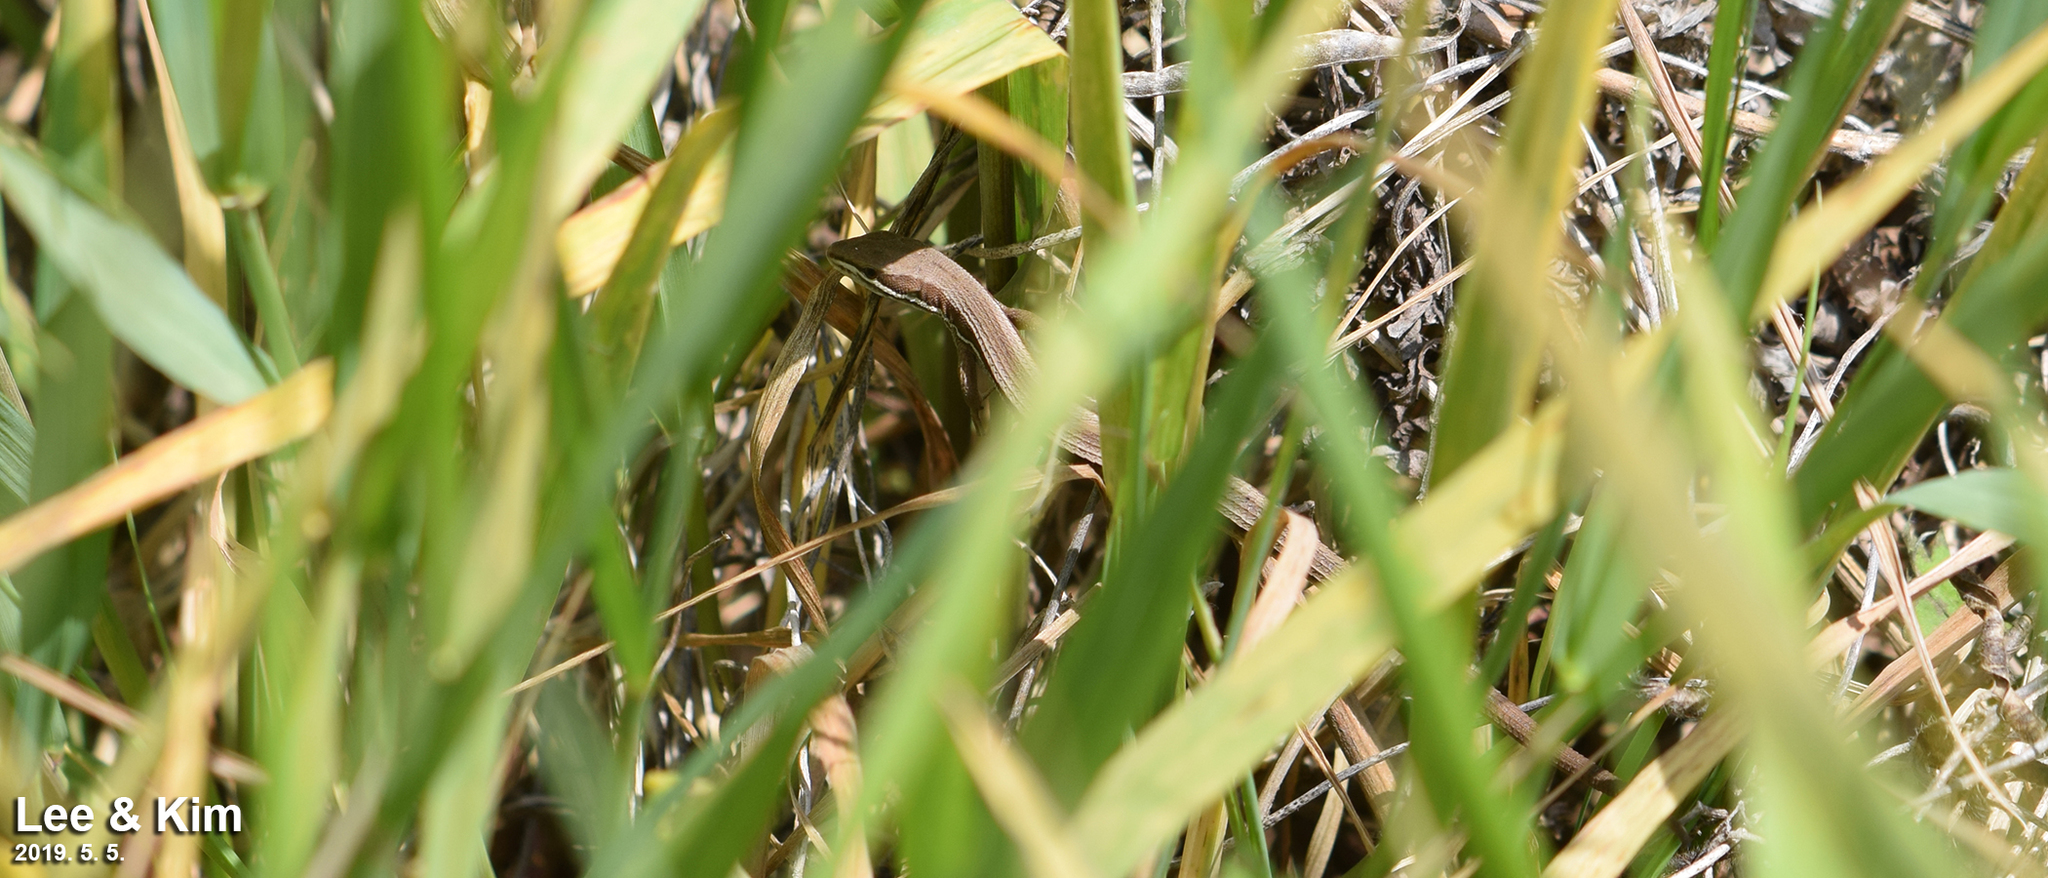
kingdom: Animalia
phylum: Chordata
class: Squamata
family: Lacertidae
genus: Takydromus
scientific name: Takydromus wolteri
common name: Mountain grass lizard
